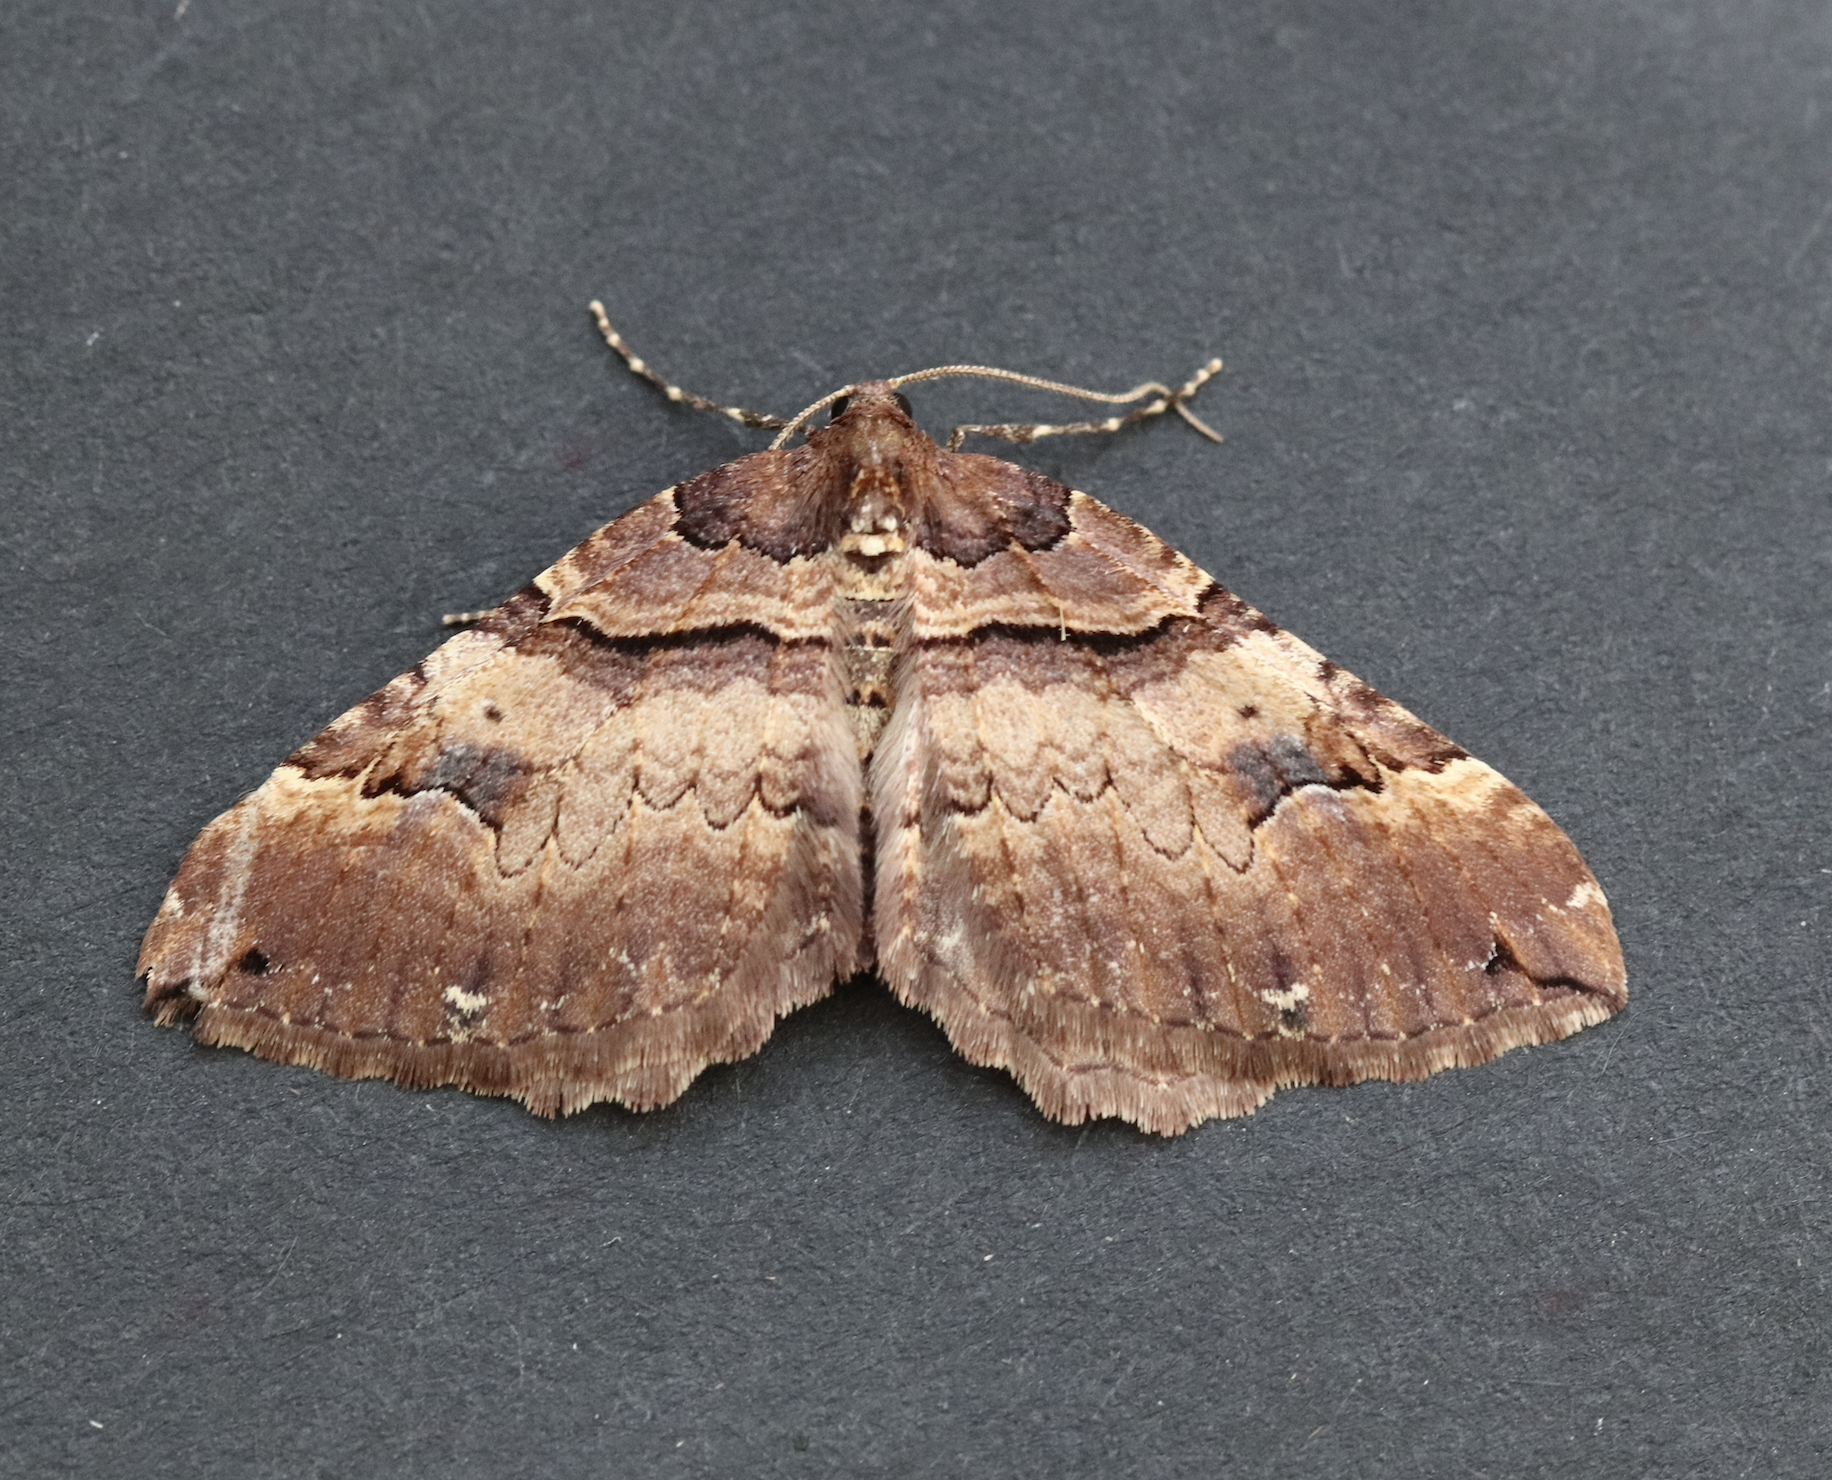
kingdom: Animalia
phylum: Arthropoda
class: Insecta
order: Lepidoptera
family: Geometridae
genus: Anticlea
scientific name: Anticlea badiata
